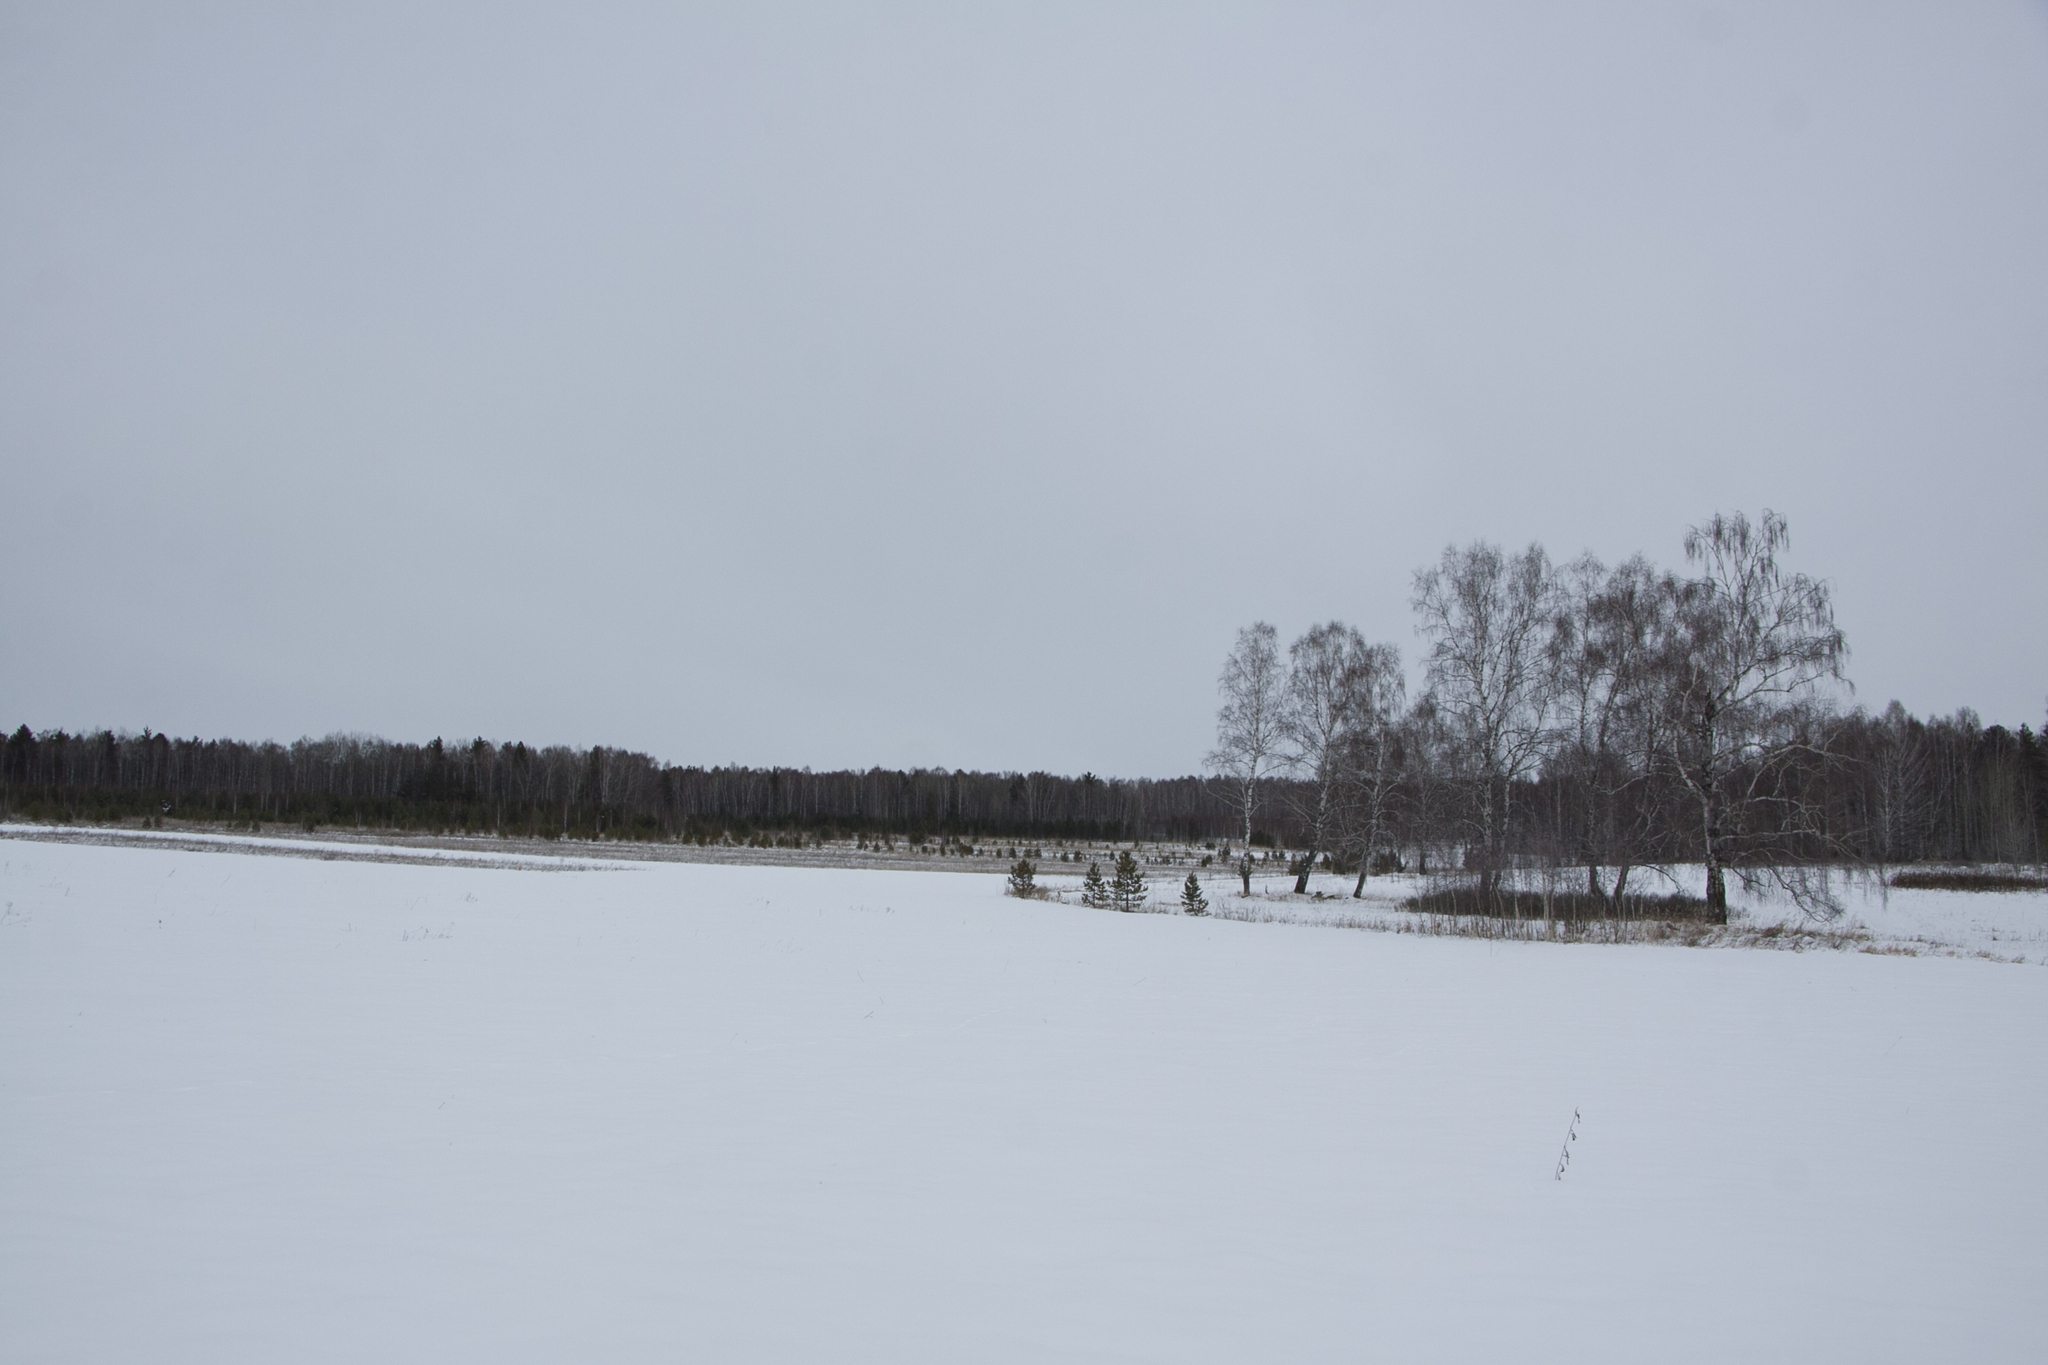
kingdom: Plantae
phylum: Tracheophyta
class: Magnoliopsida
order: Fagales
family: Betulaceae
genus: Betula
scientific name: Betula pendula
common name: Silver birch
